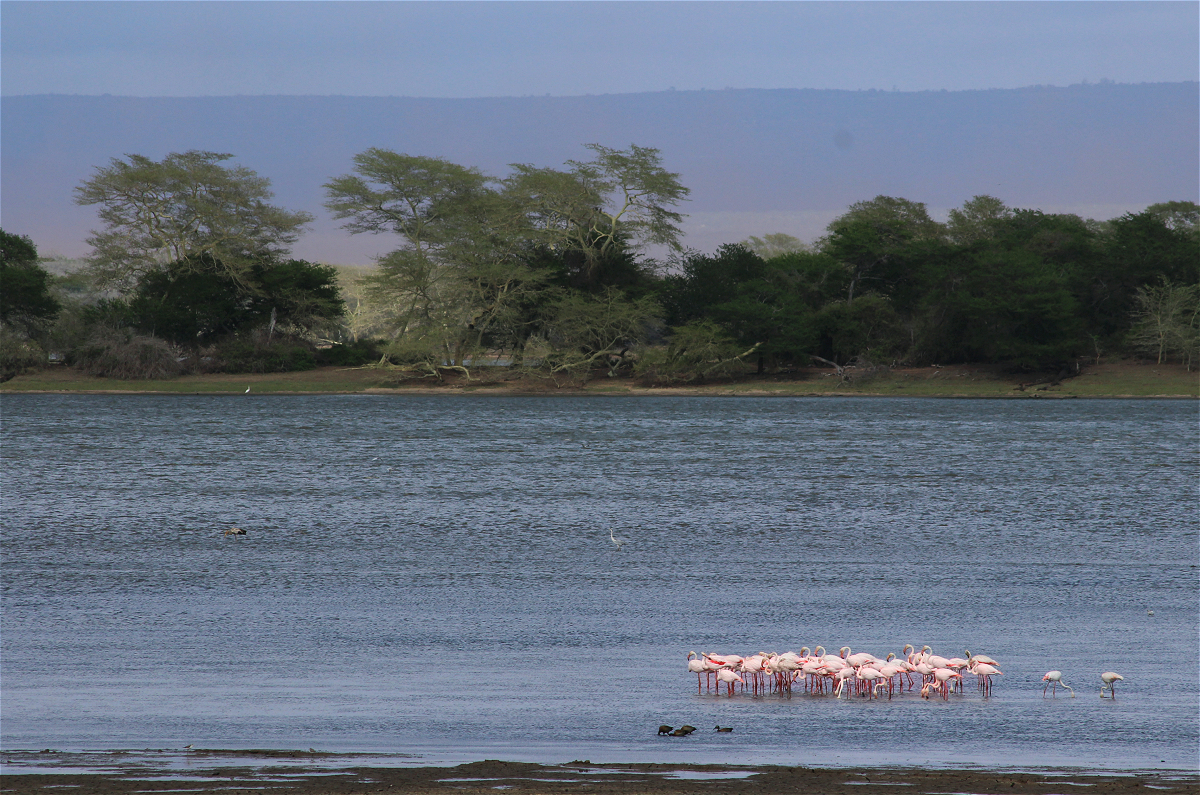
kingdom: Animalia
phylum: Chordata
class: Aves
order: Phoenicopteriformes
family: Phoenicopteridae
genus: Phoenicopterus
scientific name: Phoenicopterus roseus
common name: Greater flamingo
